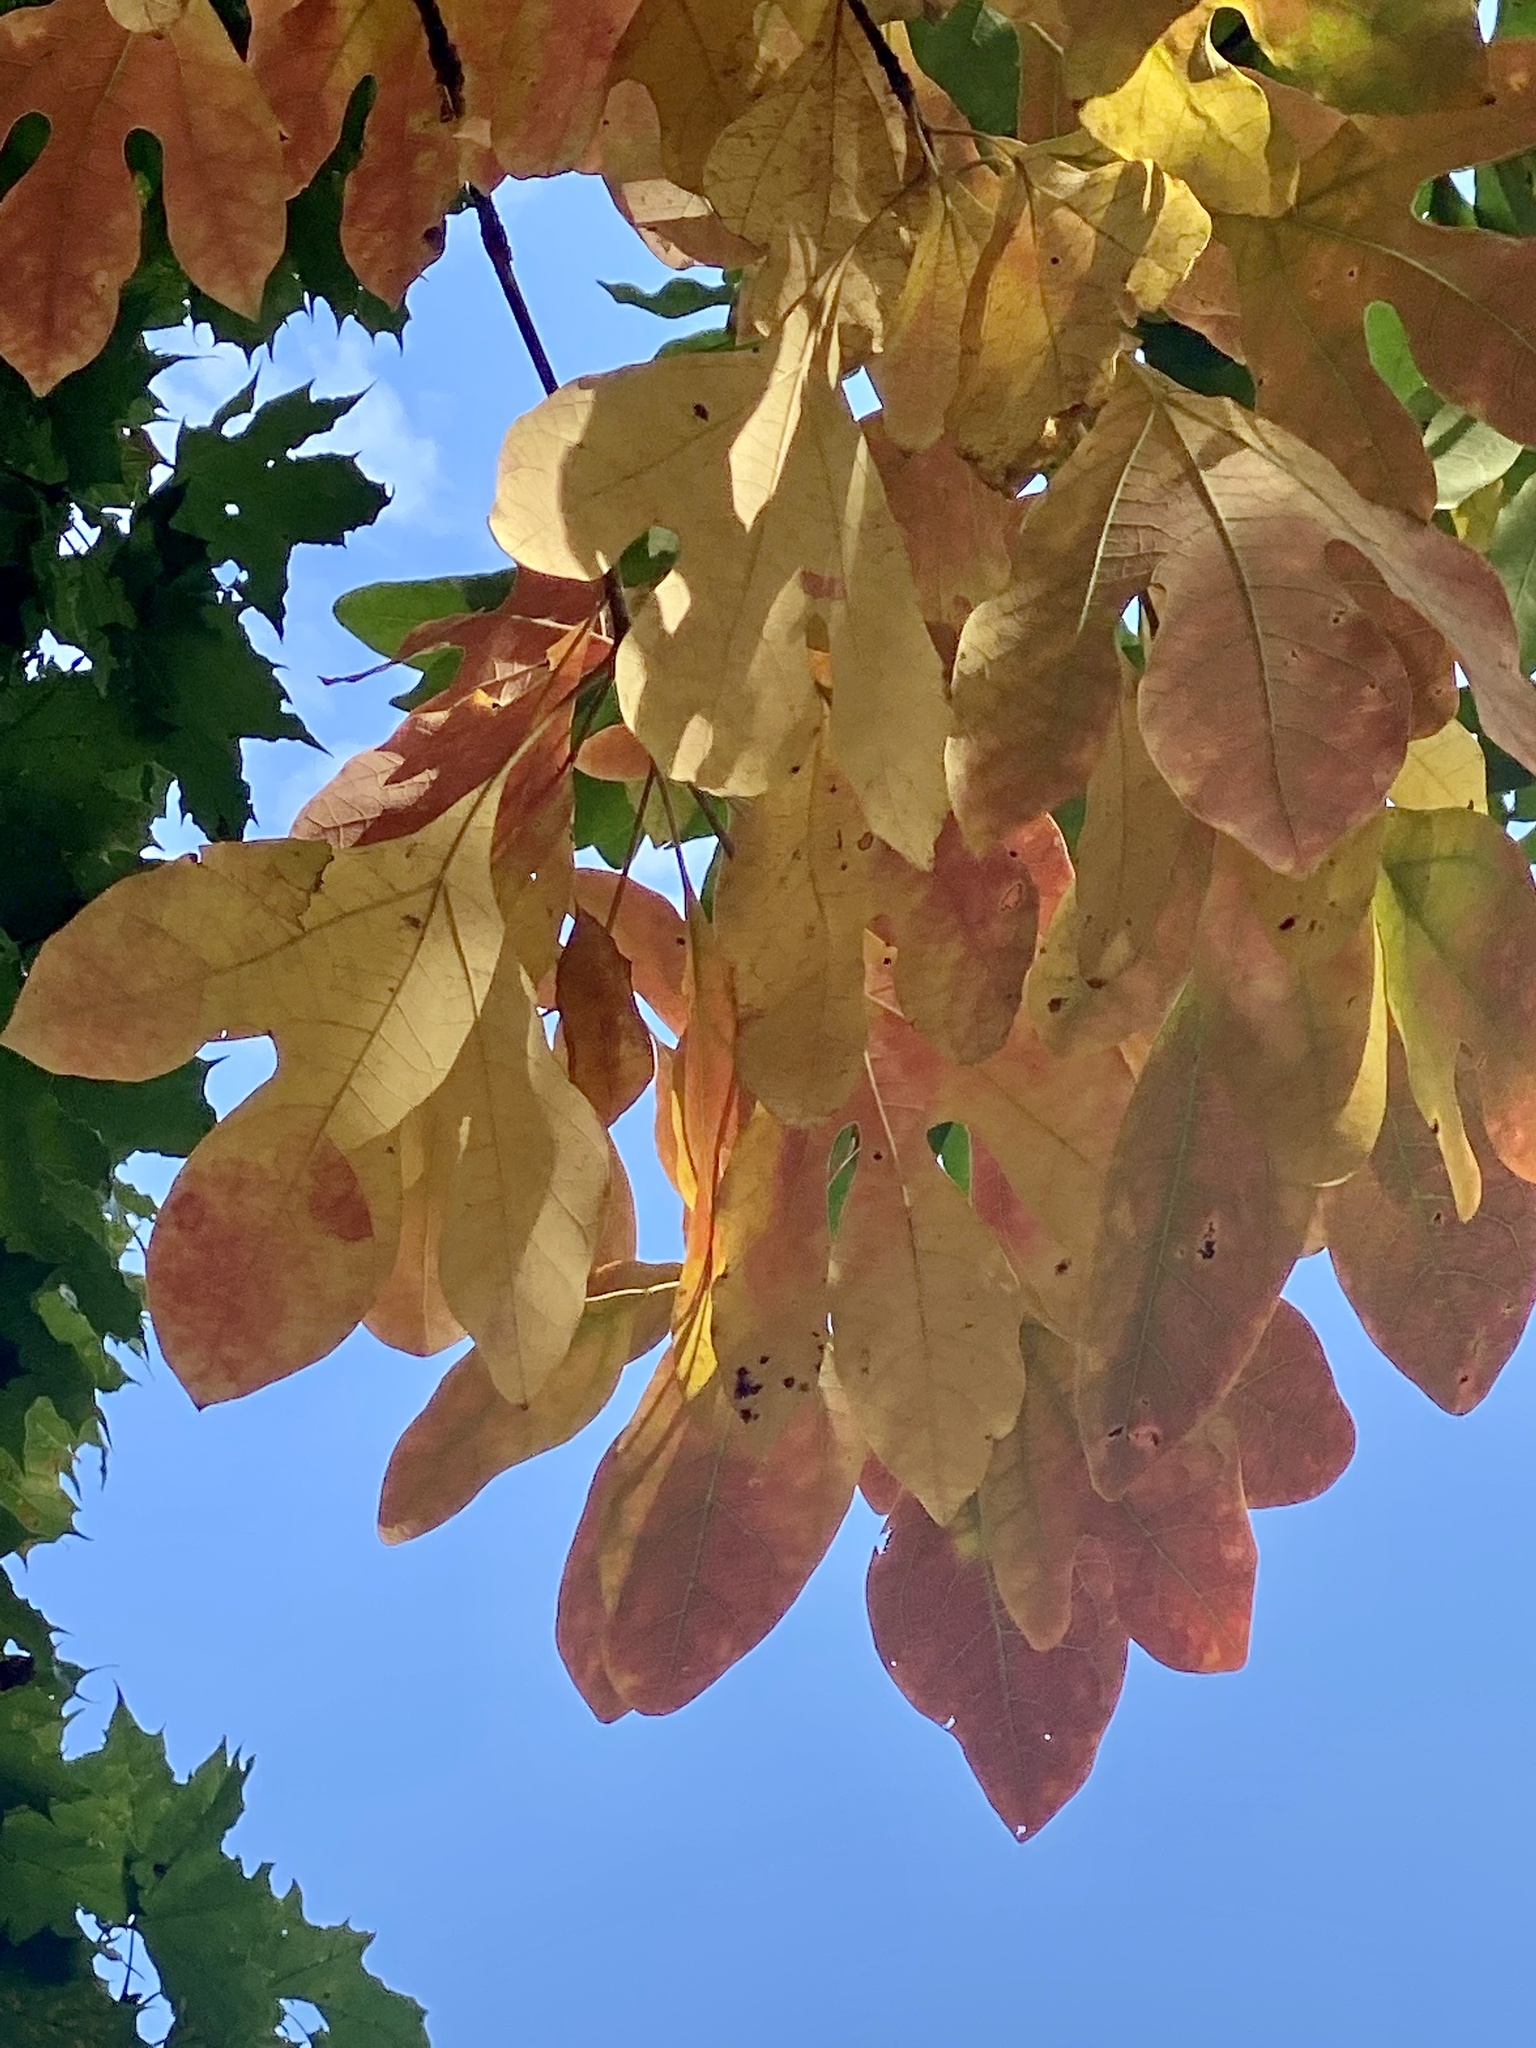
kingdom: Plantae
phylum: Tracheophyta
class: Magnoliopsida
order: Laurales
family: Lauraceae
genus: Sassafras
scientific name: Sassafras albidum
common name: Sassafras
